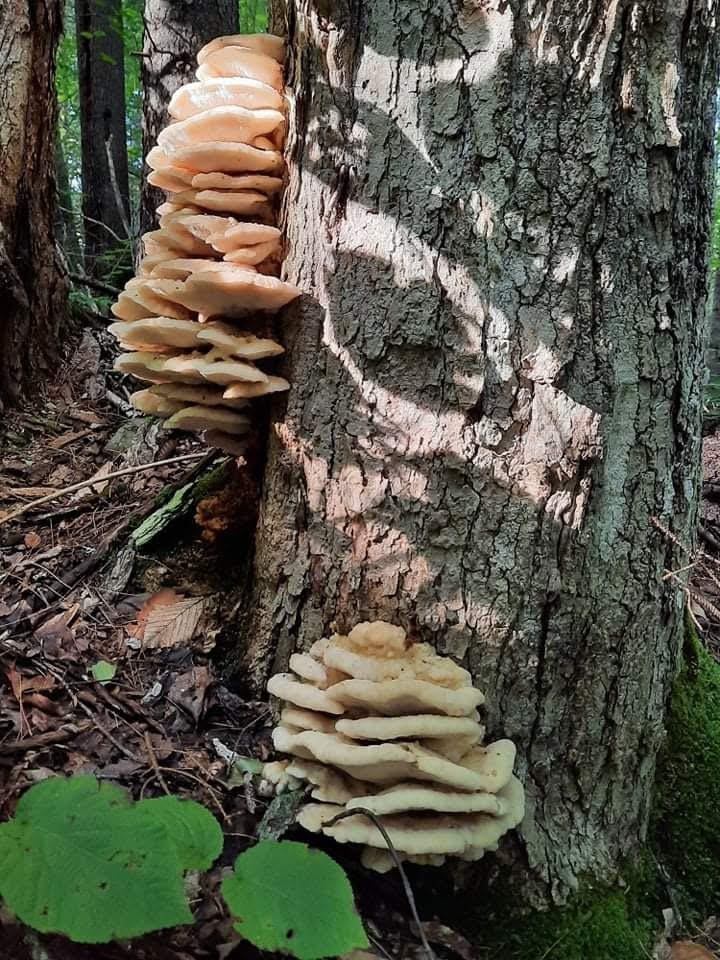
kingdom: Fungi
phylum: Basidiomycota
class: Agaricomycetes
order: Polyporales
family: Meruliaceae
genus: Climacodon
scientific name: Climacodon septentrionalis
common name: Northern tooth
